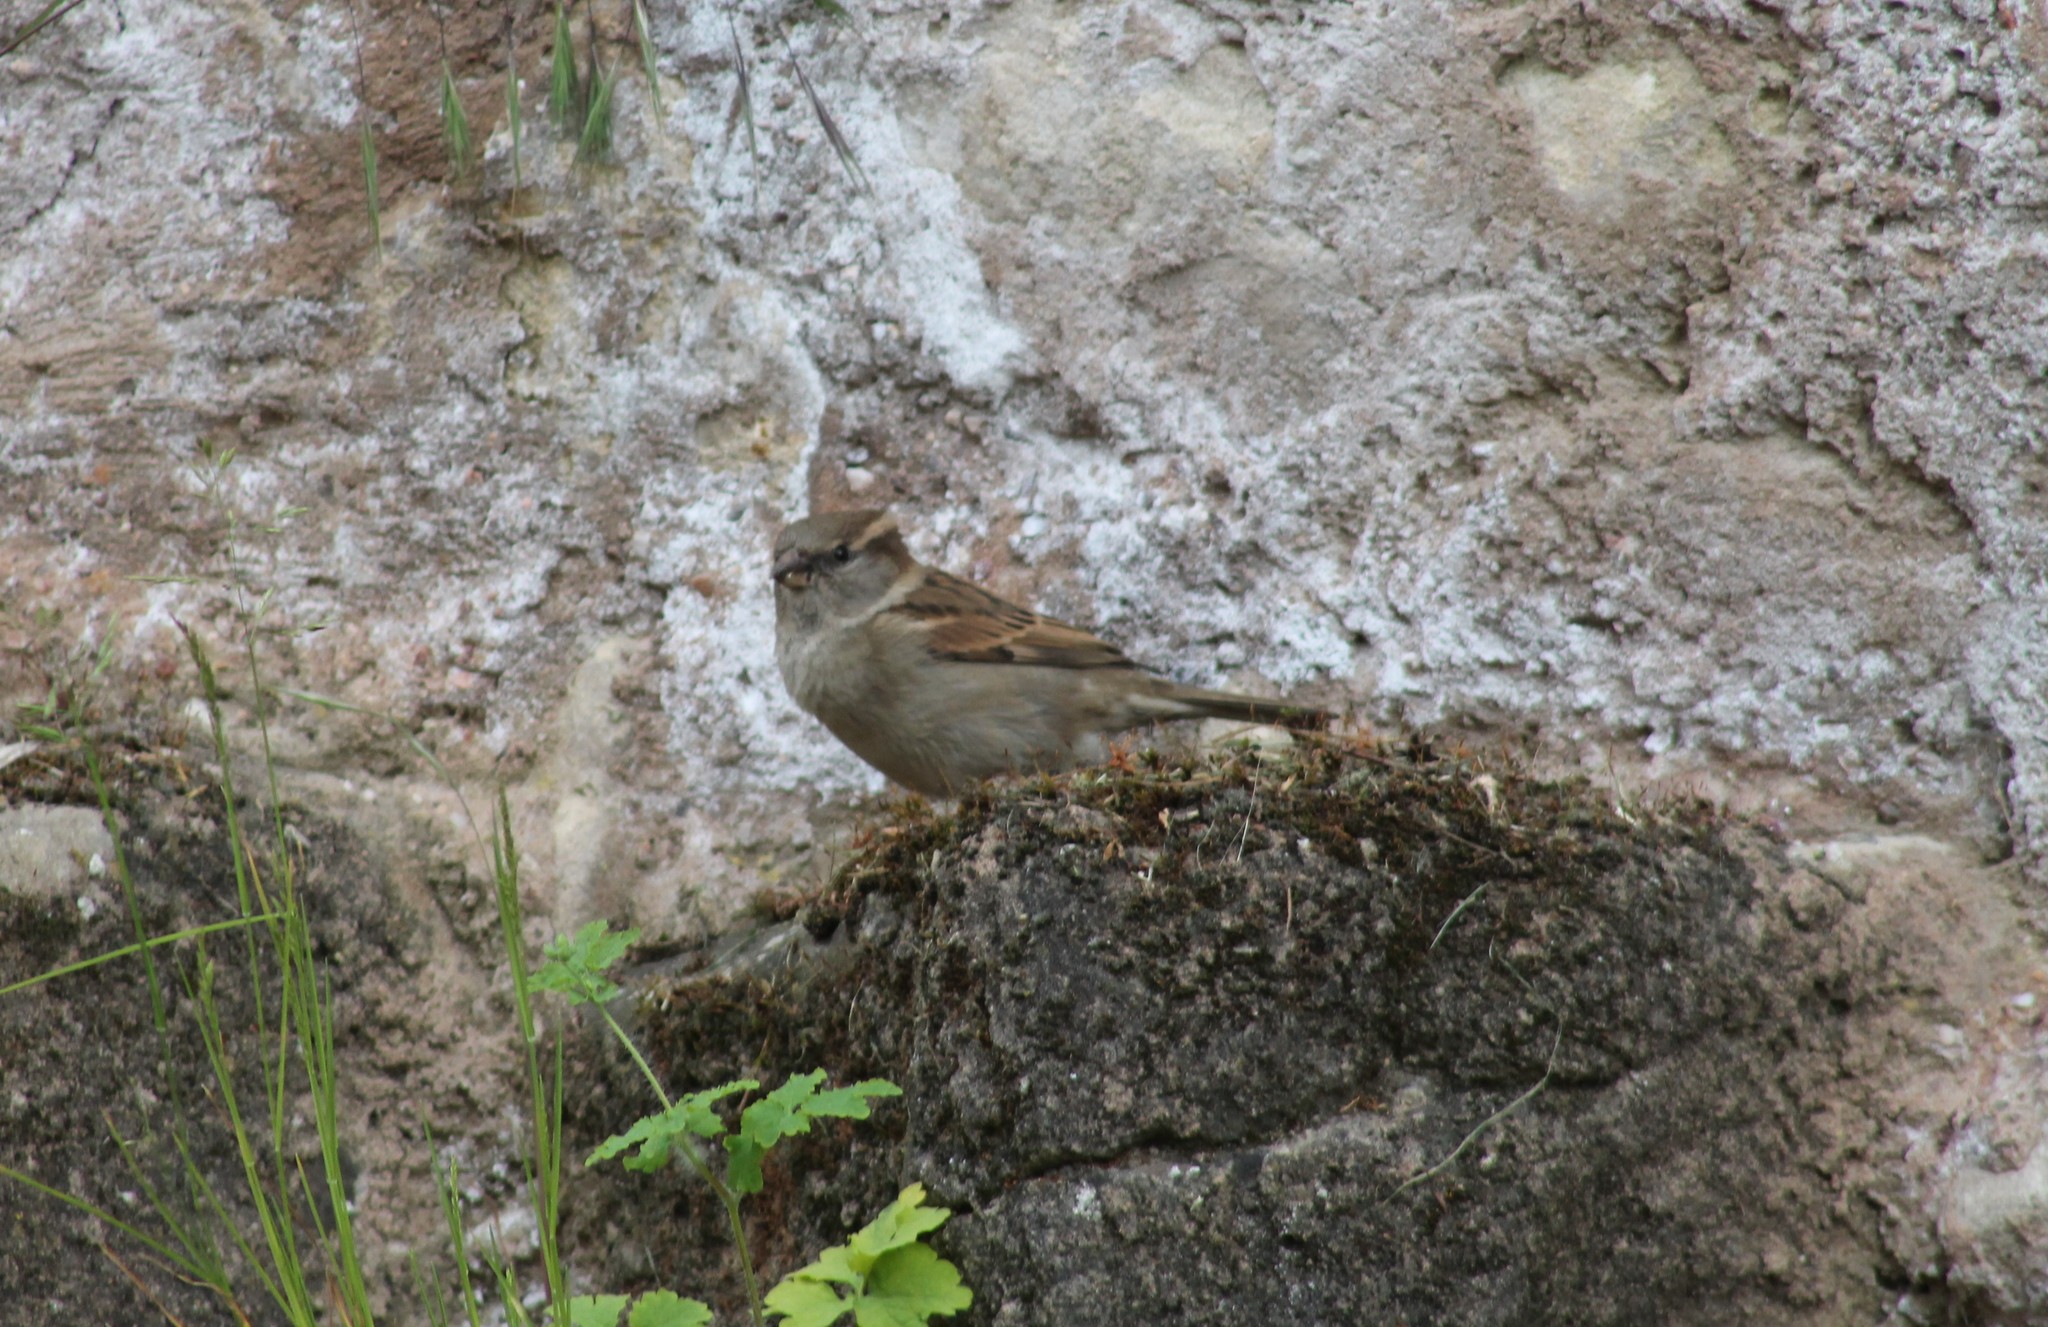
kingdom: Animalia
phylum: Chordata
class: Aves
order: Passeriformes
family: Passeridae
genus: Passer
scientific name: Passer domesticus
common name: House sparrow
